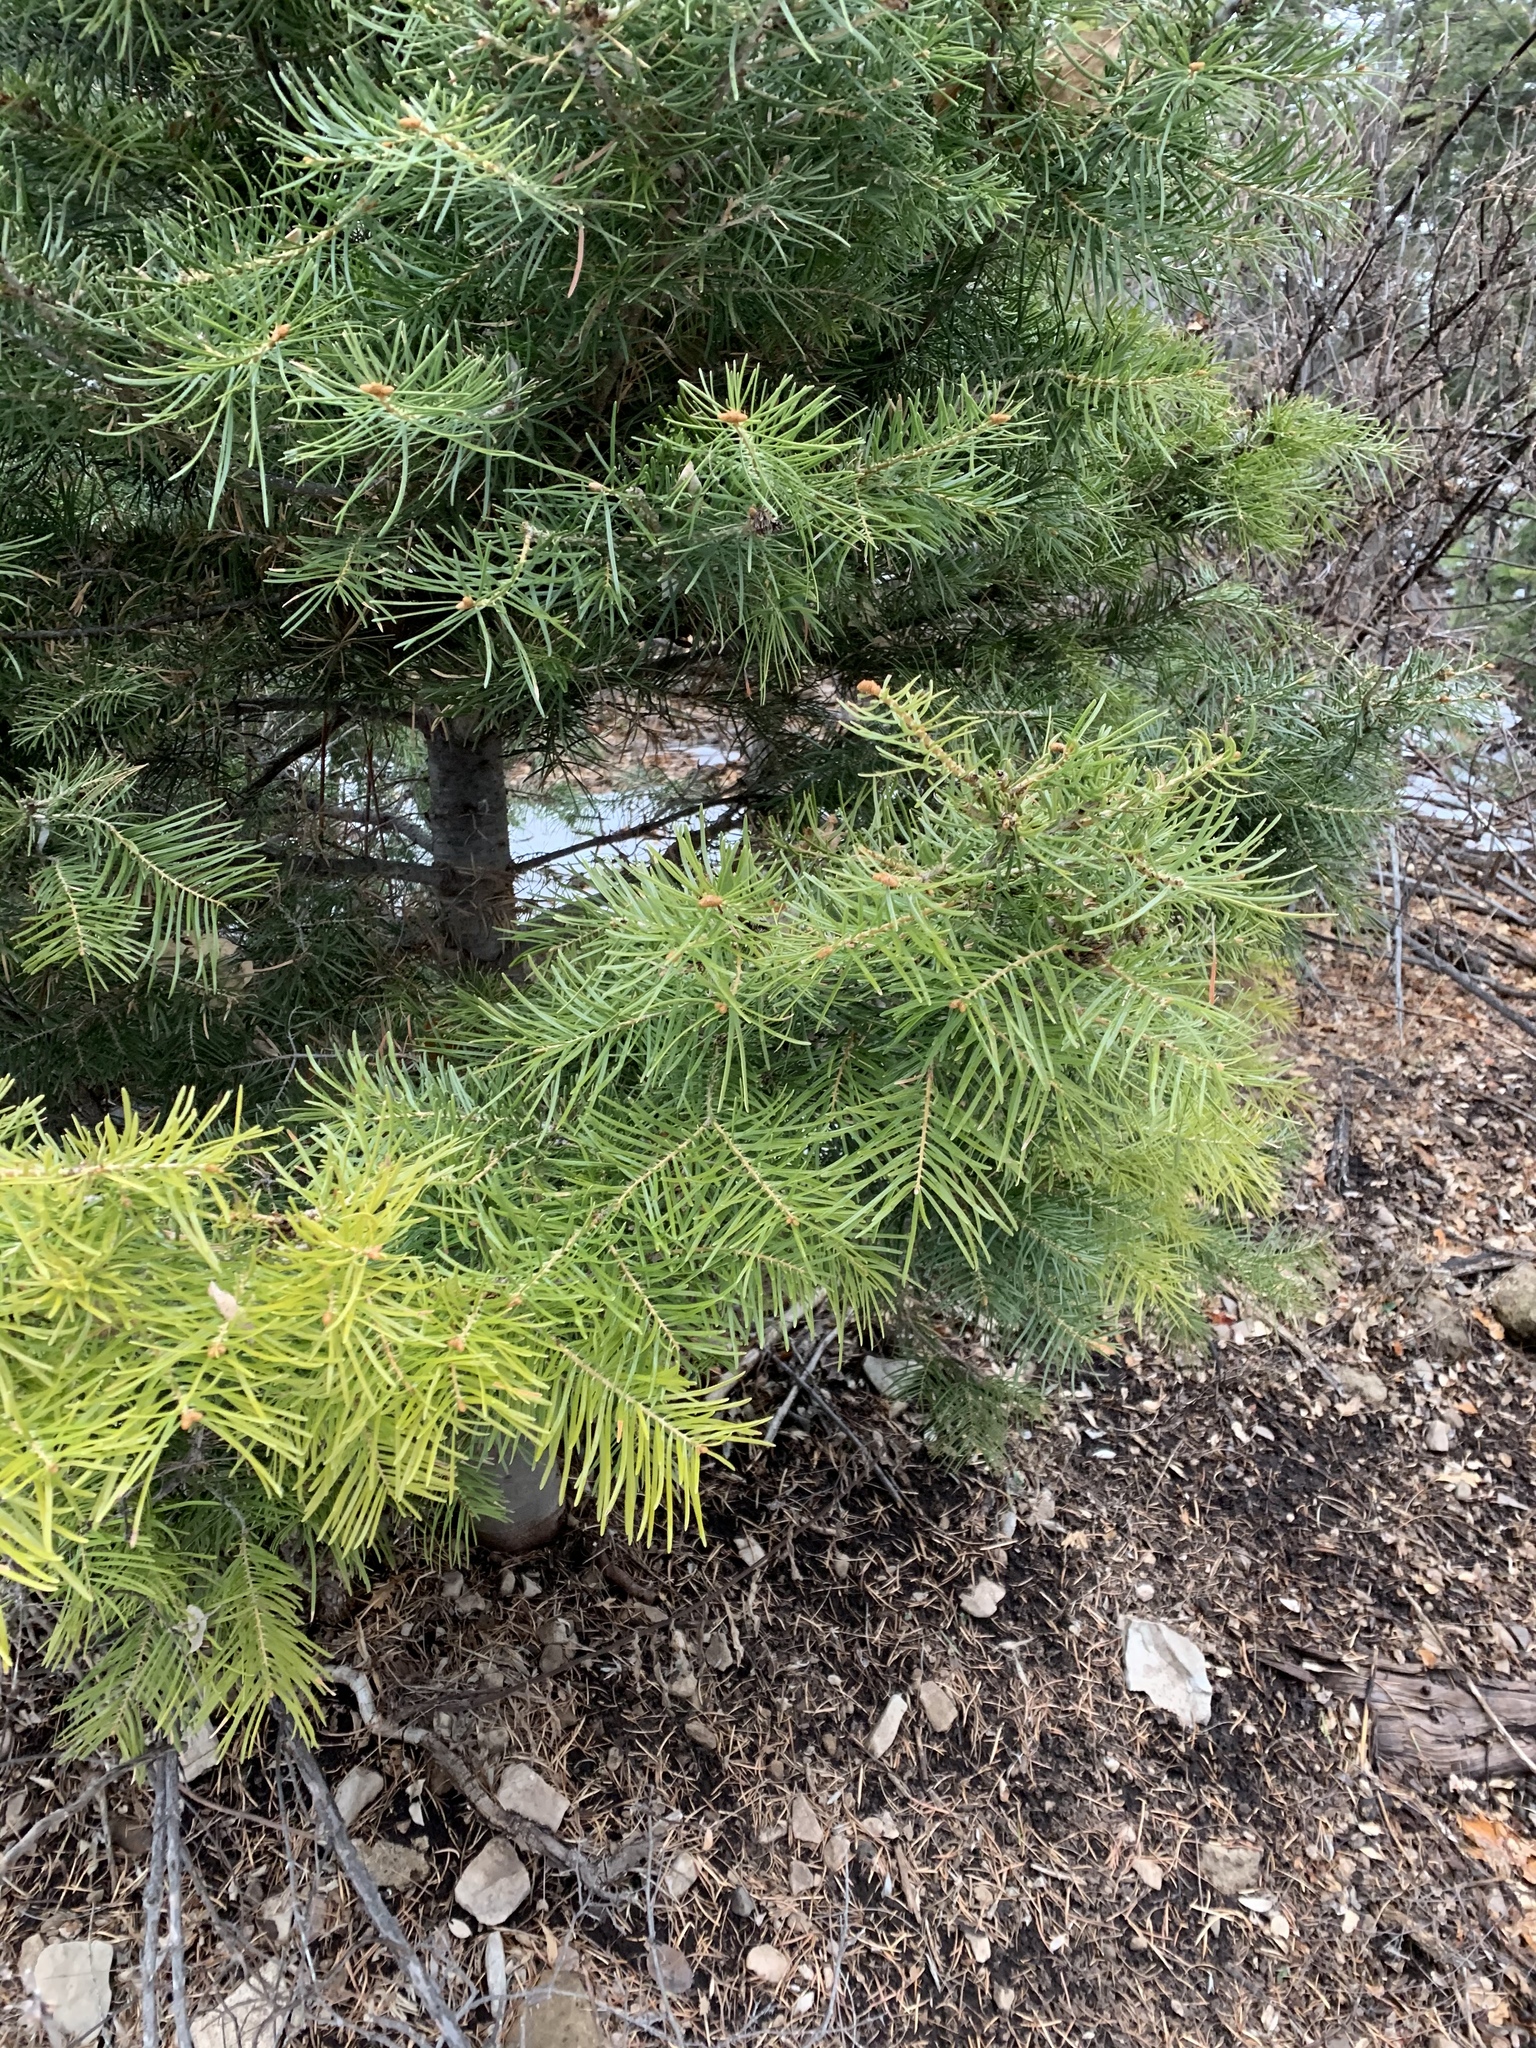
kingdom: Plantae
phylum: Tracheophyta
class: Pinopsida
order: Pinales
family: Pinaceae
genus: Abies
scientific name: Abies concolor
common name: Colorado fir
